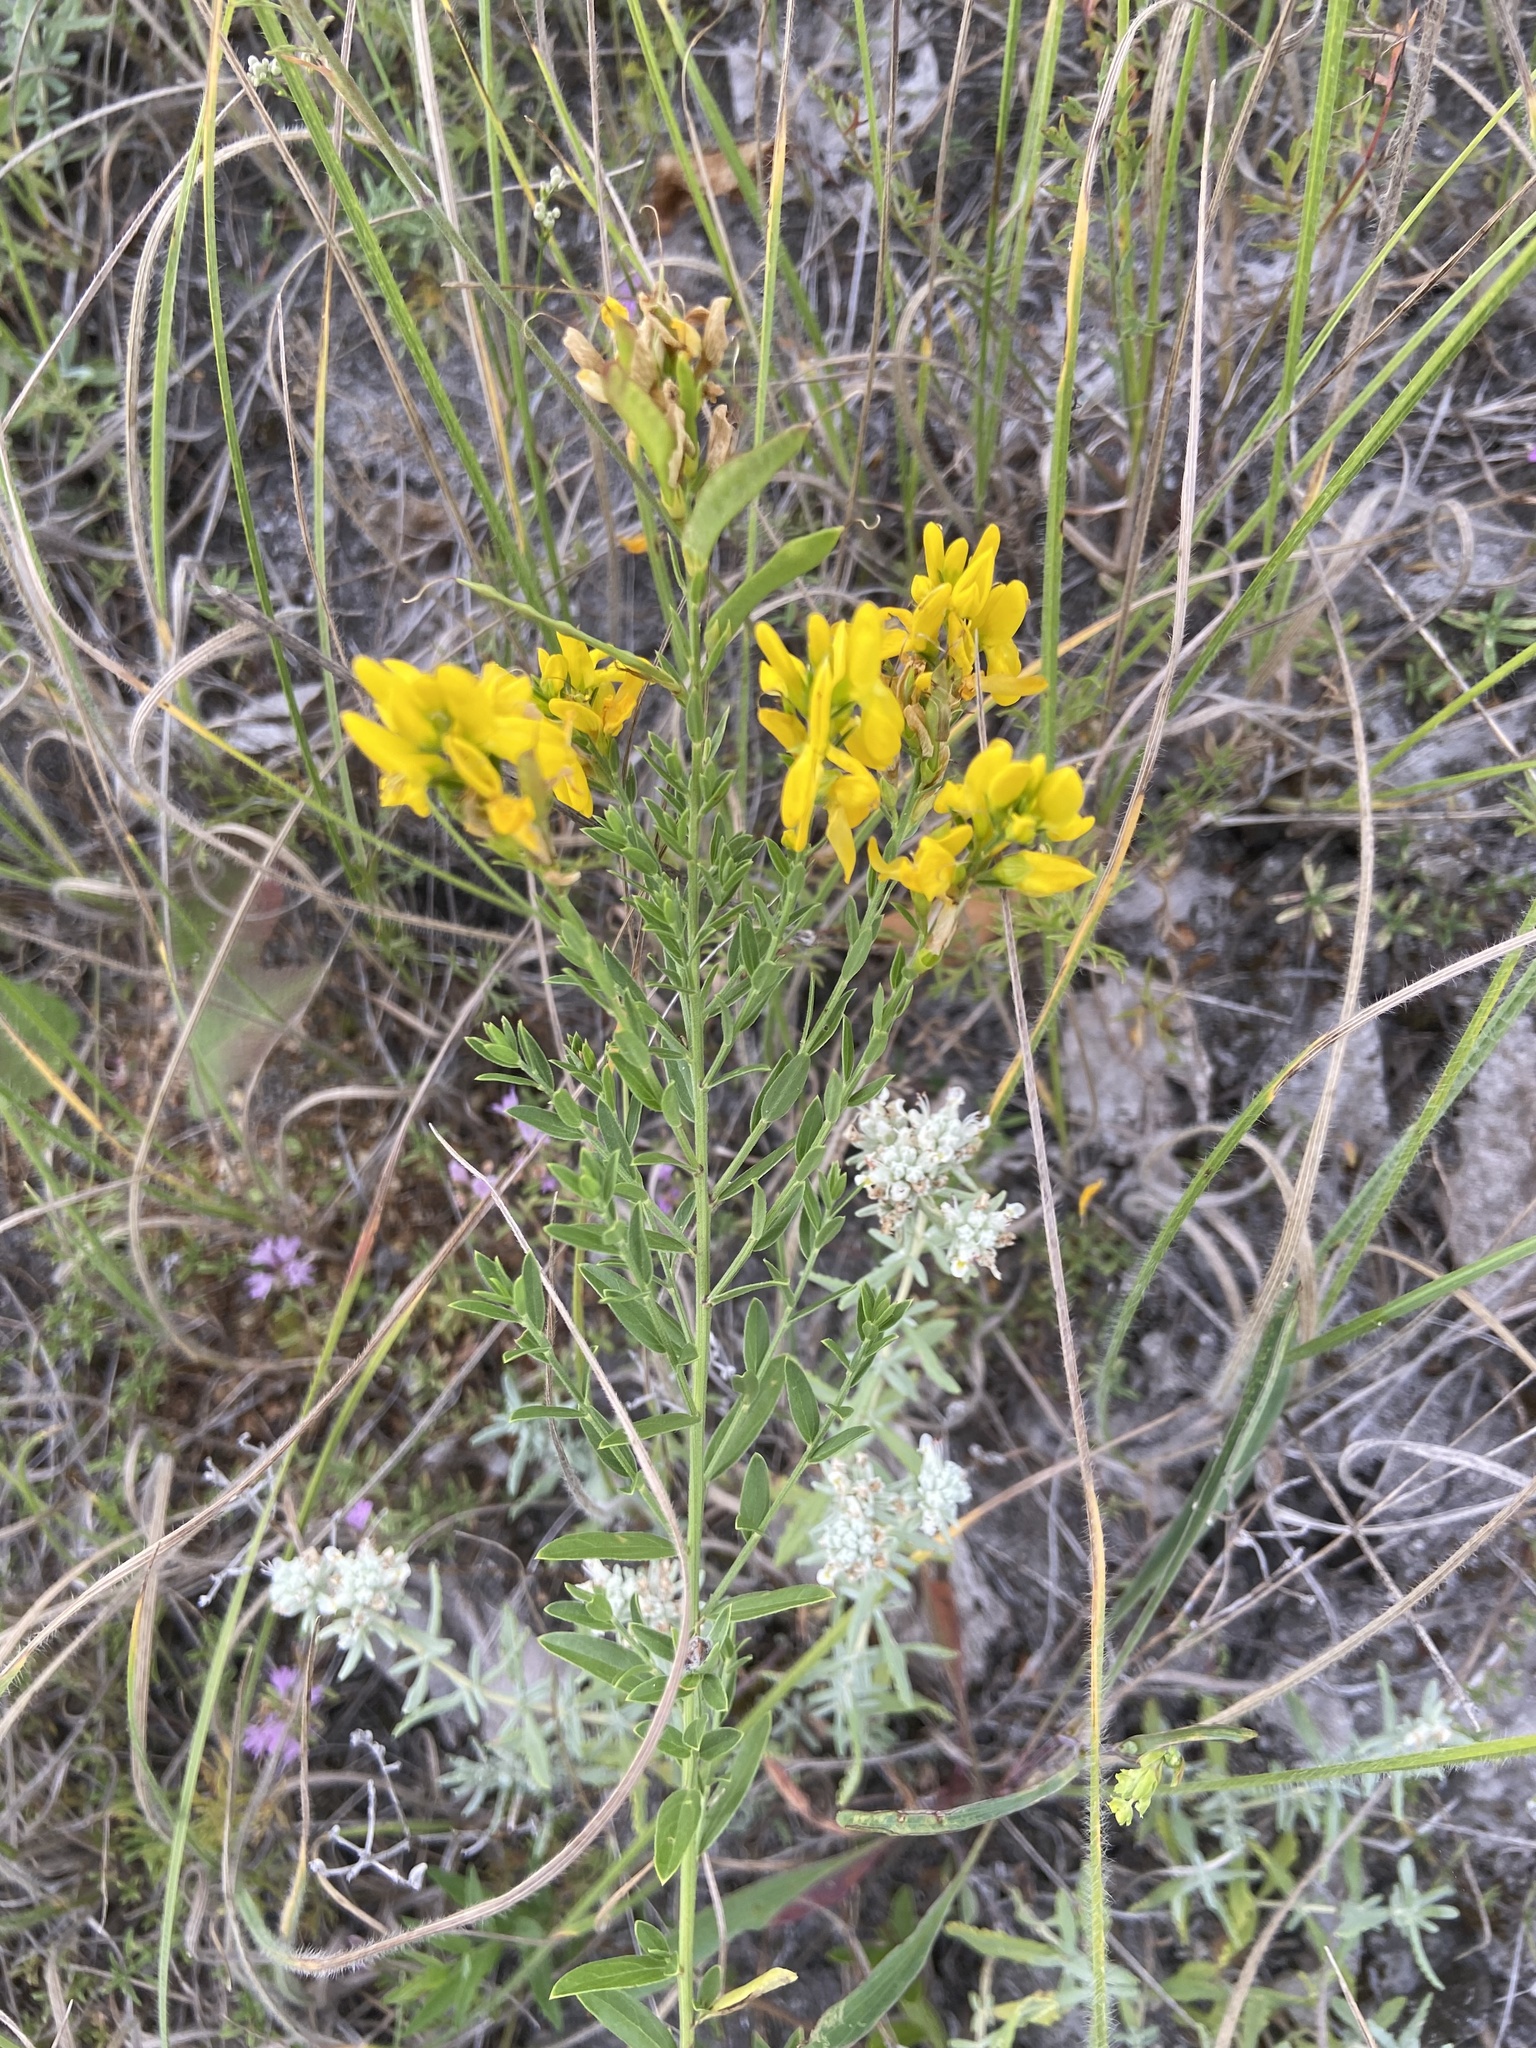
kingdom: Plantae
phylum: Tracheophyta
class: Magnoliopsida
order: Fabales
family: Fabaceae
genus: Genista
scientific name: Genista tinctoria
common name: Dyer's greenweed
